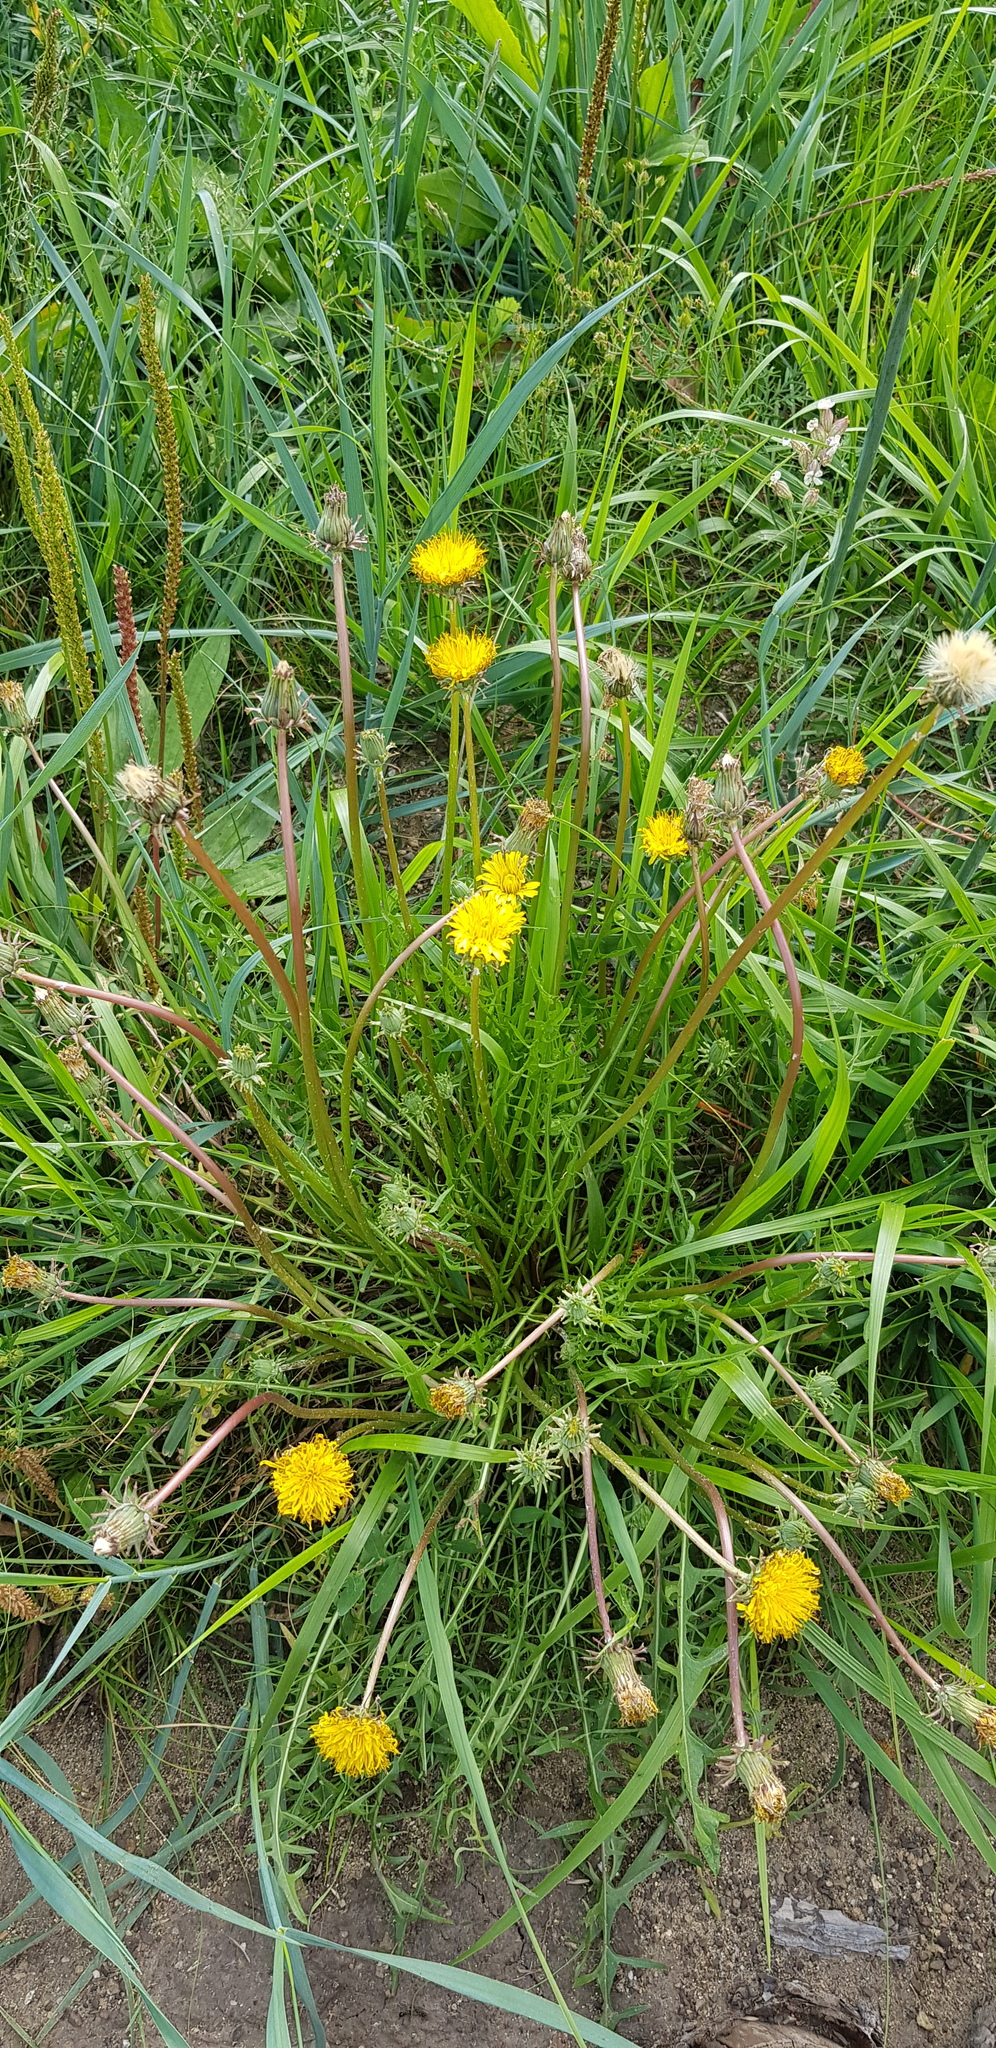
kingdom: Plantae
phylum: Tracheophyta
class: Magnoliopsida
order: Asterales
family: Asteraceae
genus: Taraxacum
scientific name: Taraxacum officinale
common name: Common dandelion
